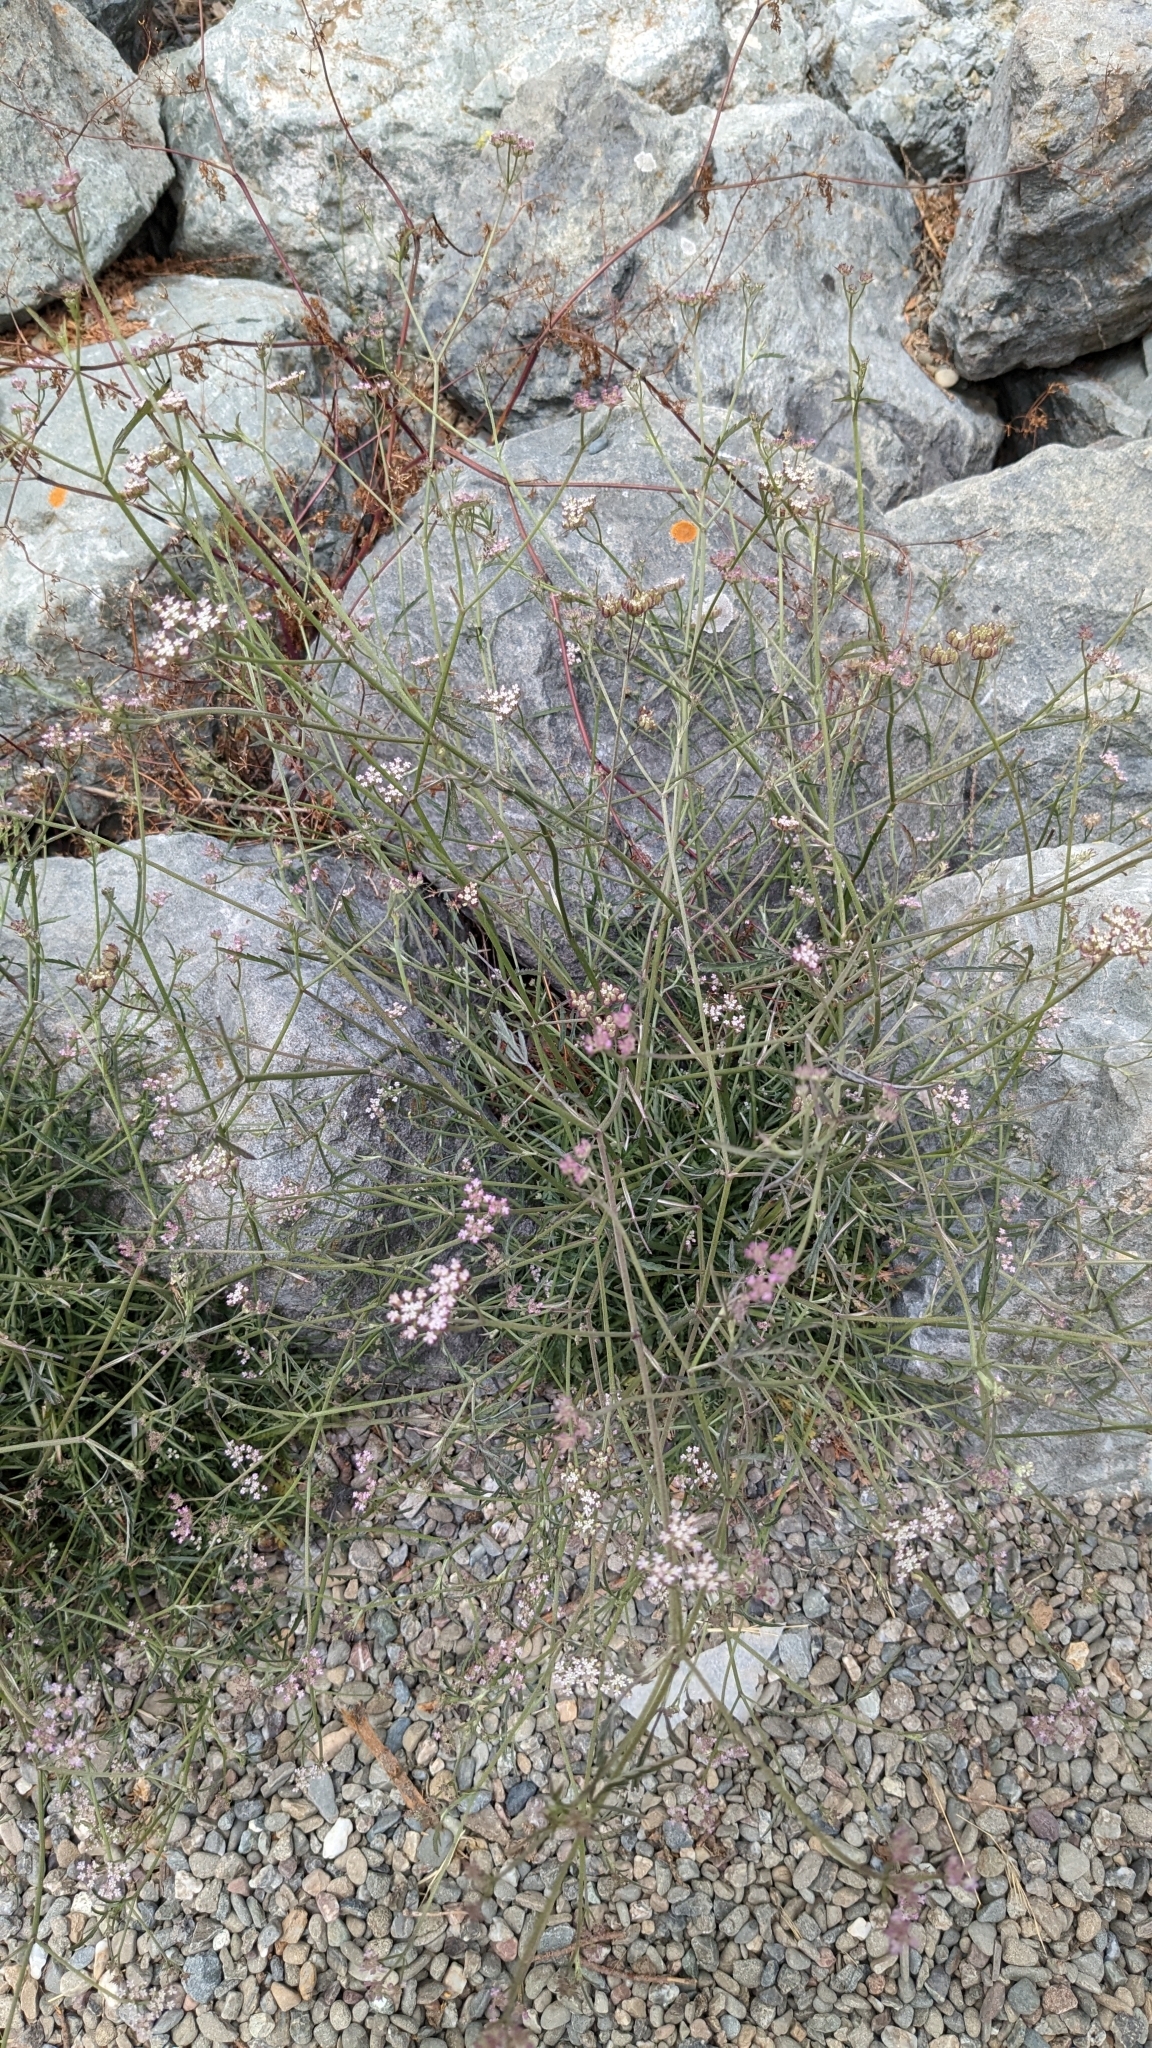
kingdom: Plantae
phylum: Tracheophyta
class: Magnoliopsida
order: Apiales
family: Apiaceae
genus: Torilis
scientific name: Torilis arvensis
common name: Spreading hedge-parsley
